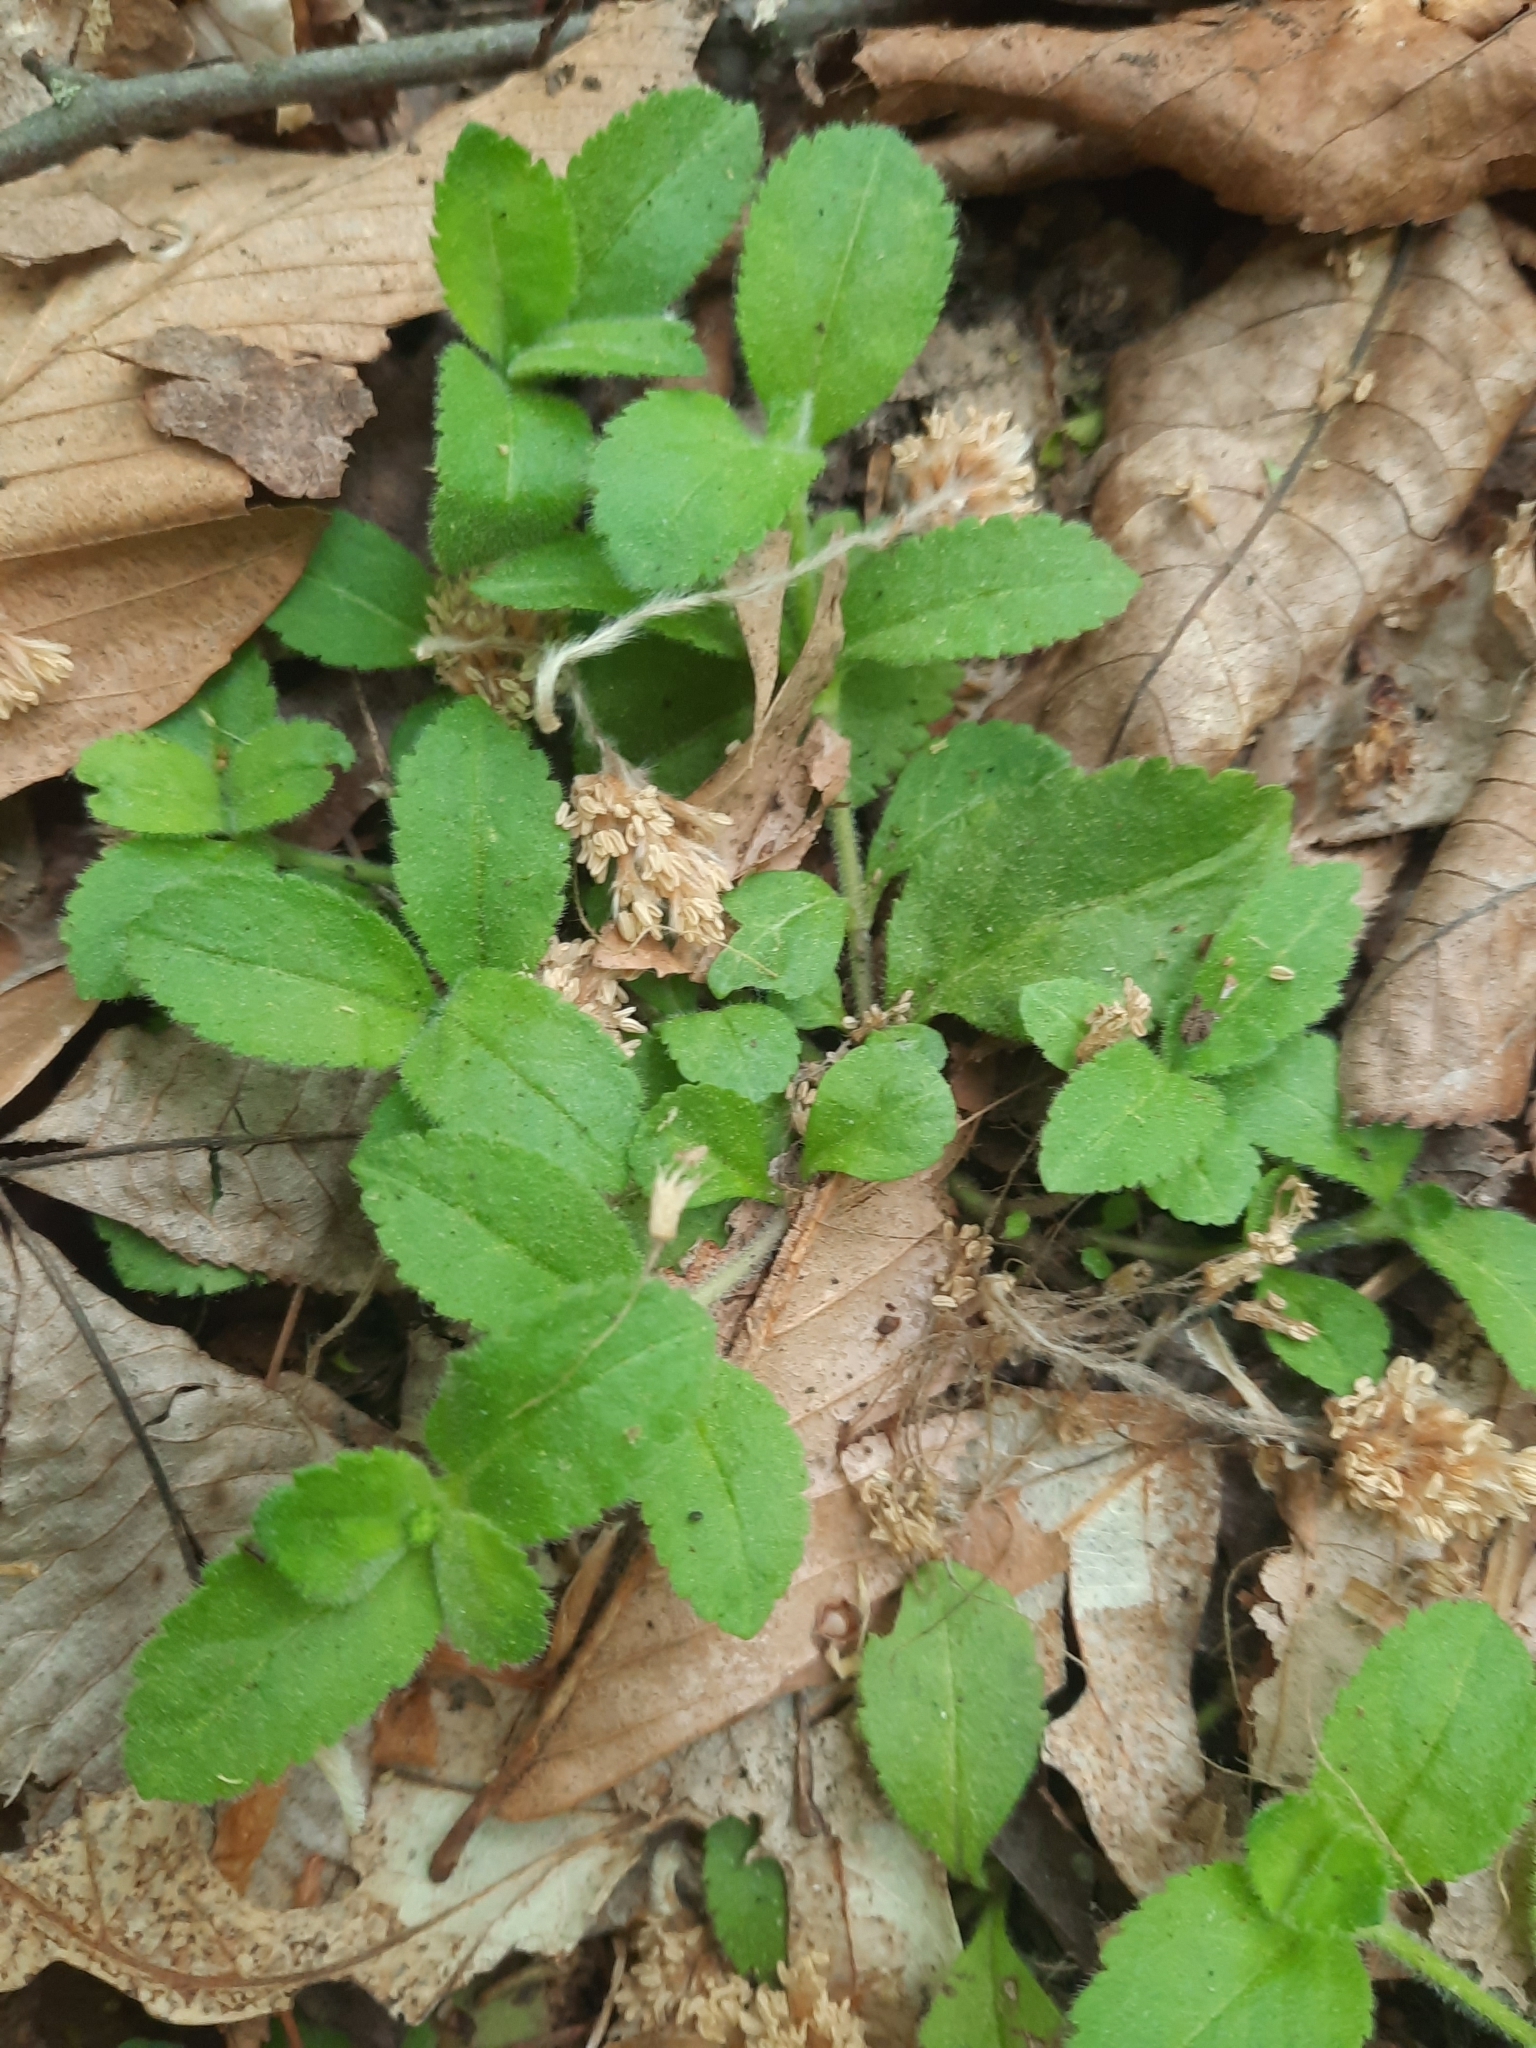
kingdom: Plantae
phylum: Tracheophyta
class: Magnoliopsida
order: Lamiales
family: Plantaginaceae
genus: Veronica
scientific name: Veronica officinalis
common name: Common speedwell
